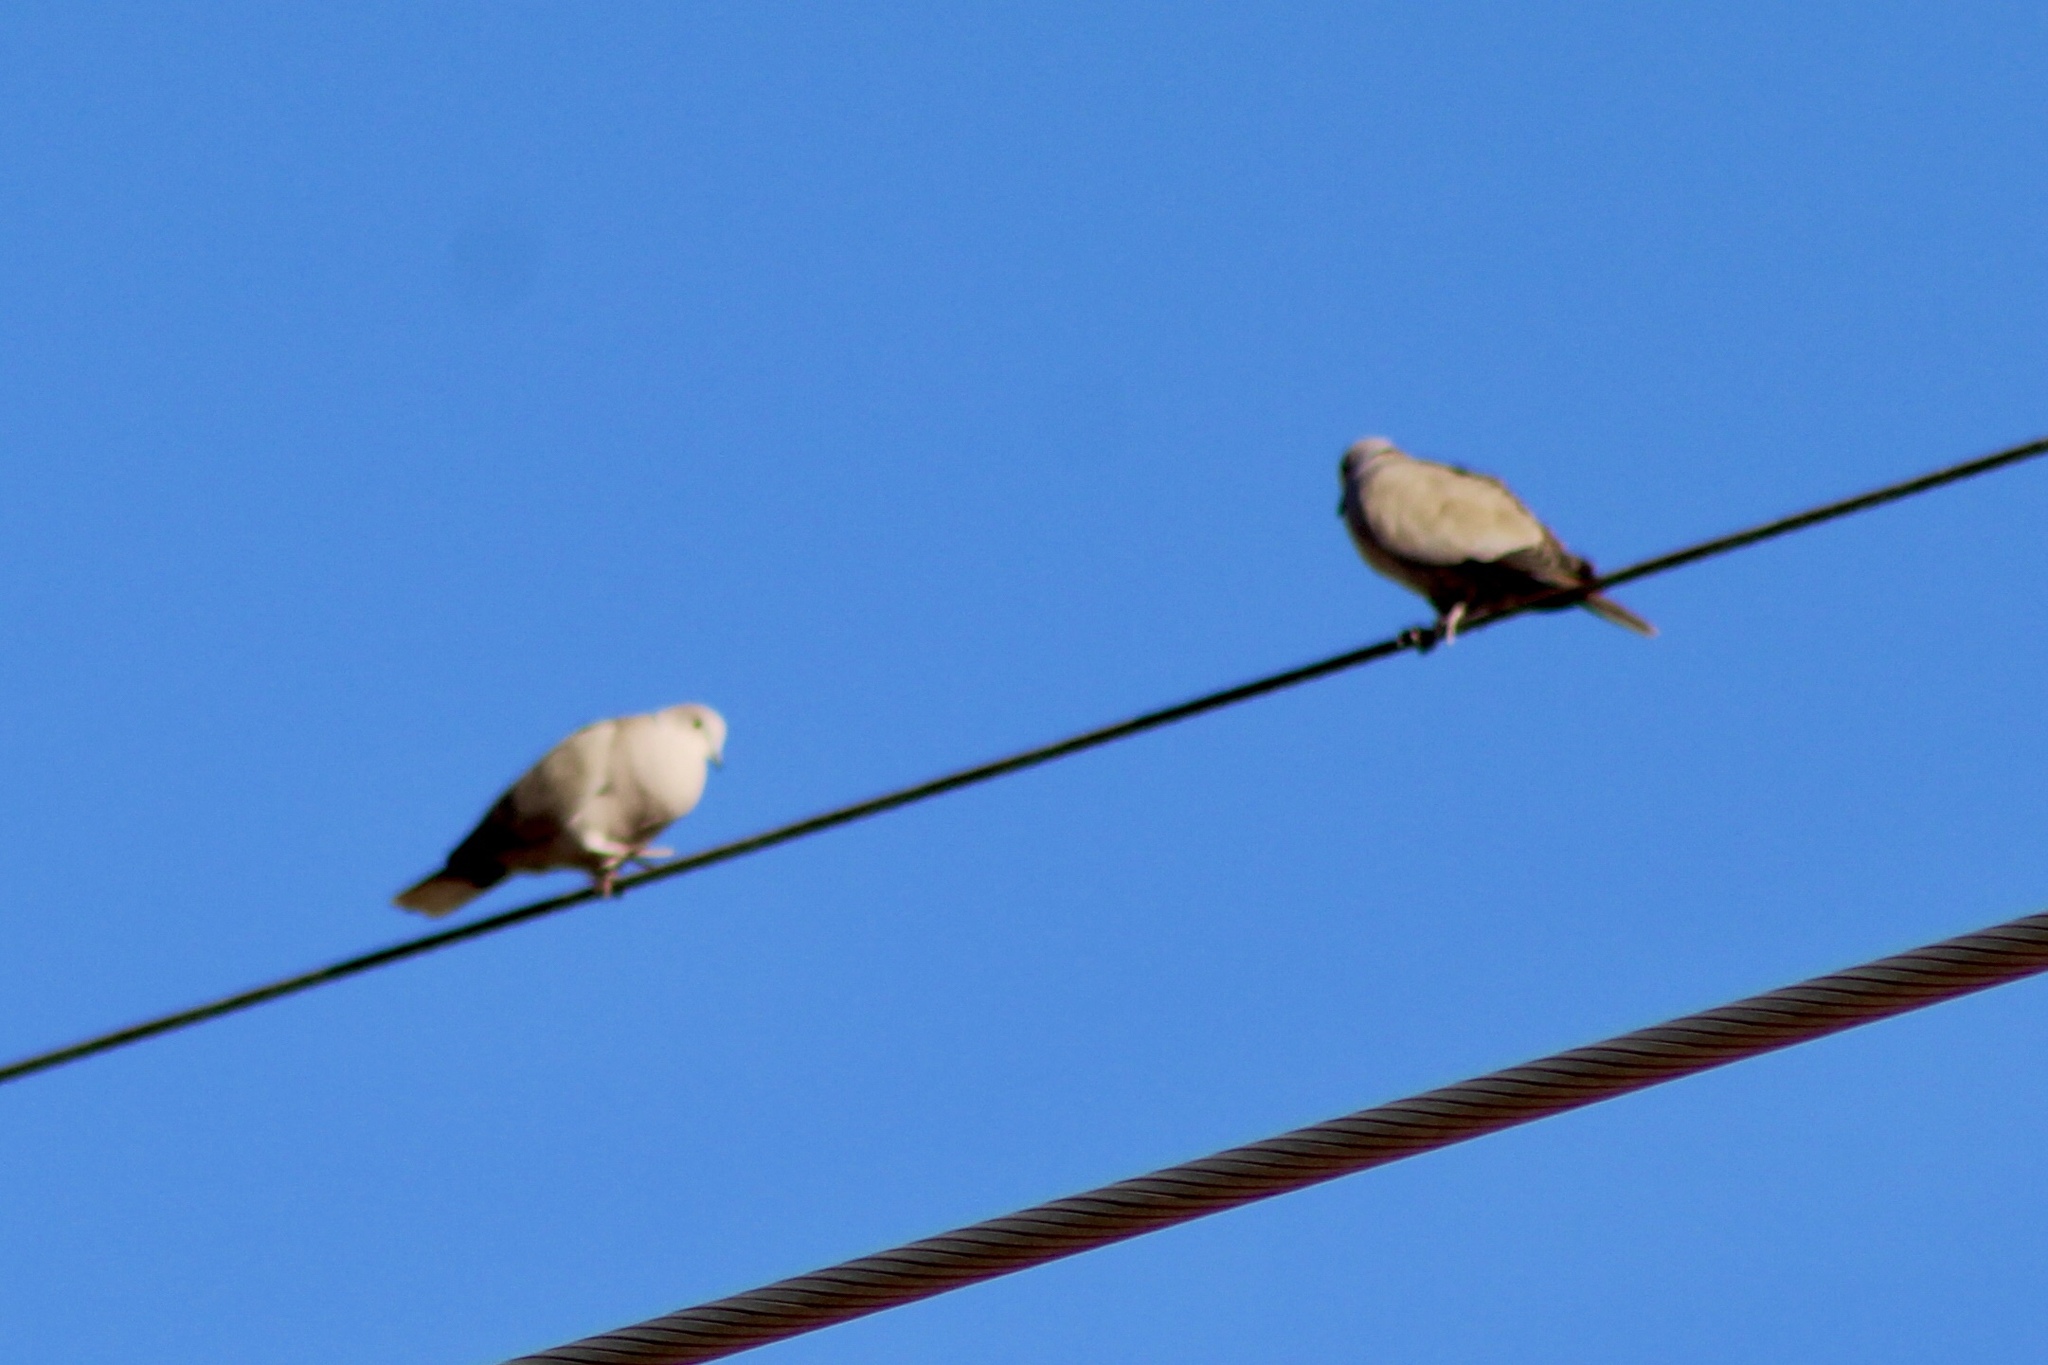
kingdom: Animalia
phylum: Chordata
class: Aves
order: Columbiformes
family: Columbidae
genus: Streptopelia
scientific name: Streptopelia decaocto
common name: Eurasian collared dove
